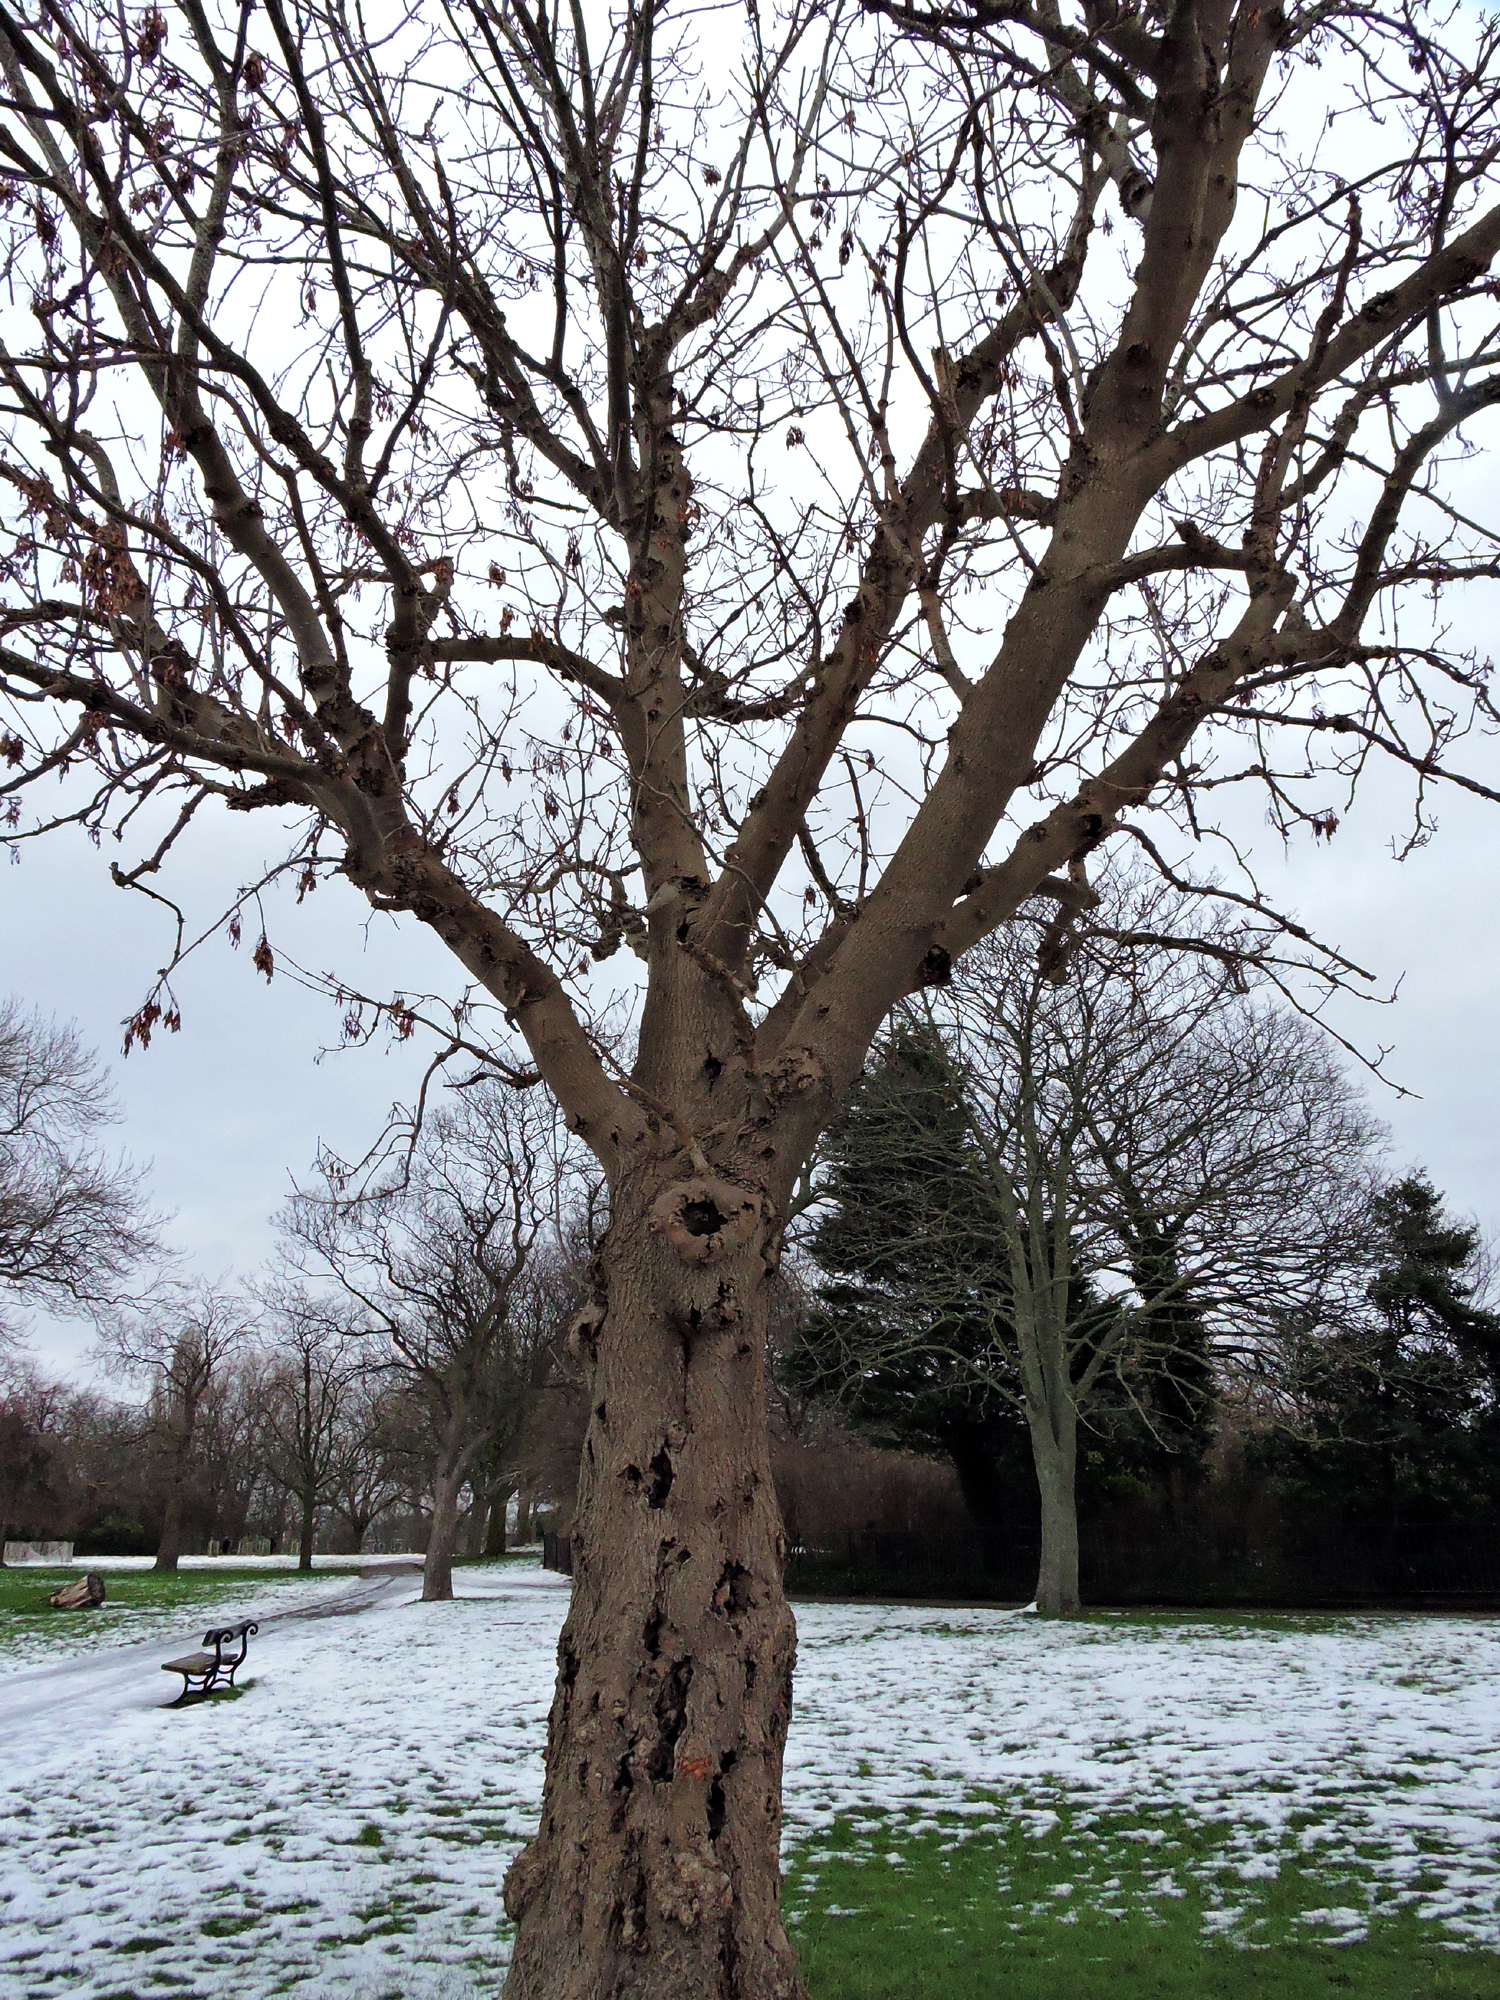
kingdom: Plantae
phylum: Tracheophyta
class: Magnoliopsida
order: Lamiales
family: Oleaceae
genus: Fraxinus
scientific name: Fraxinus excelsior
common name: European ash
